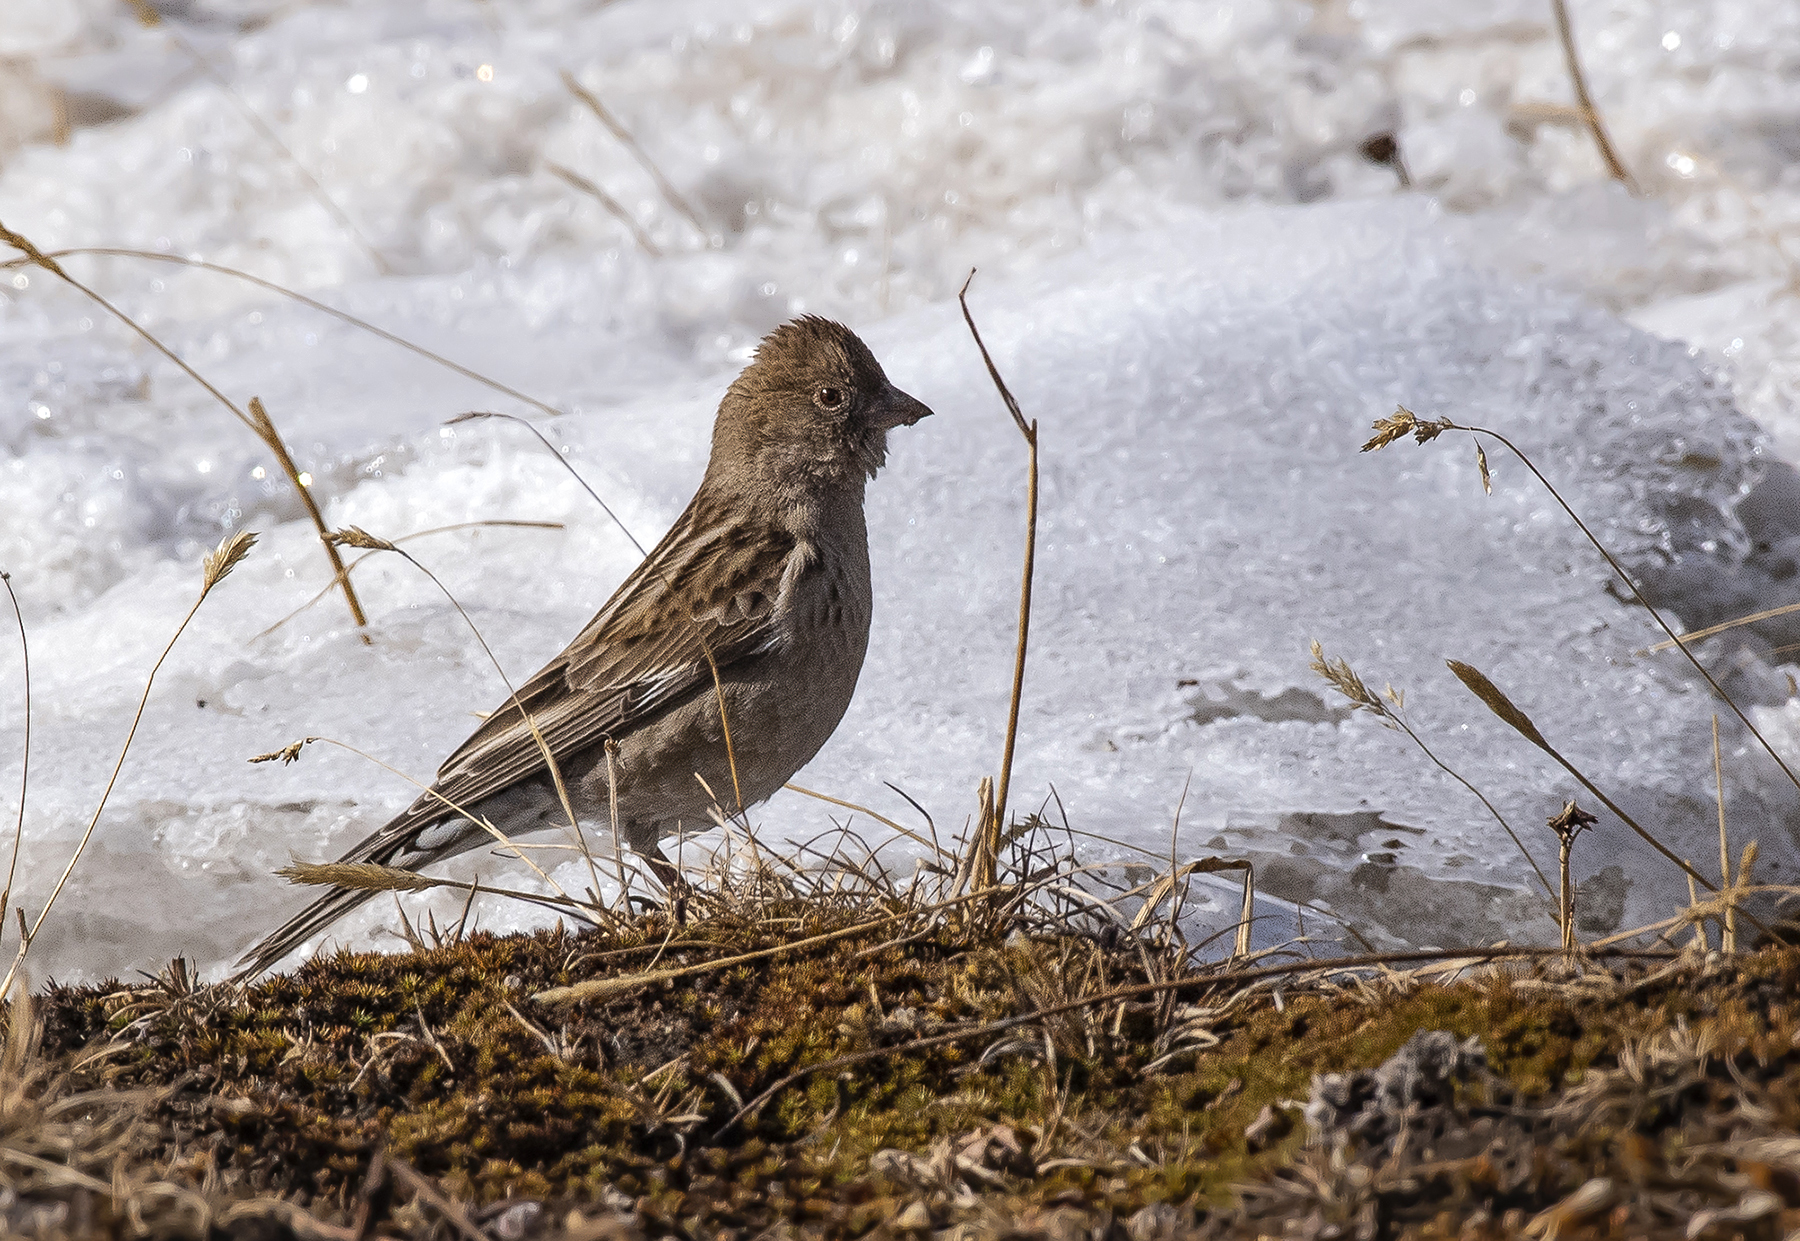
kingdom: Animalia
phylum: Chordata
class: Aves
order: Passeriformes
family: Fringillidae
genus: Leucosticte
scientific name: Leucosticte nemoricola
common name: Plain mountain finch
